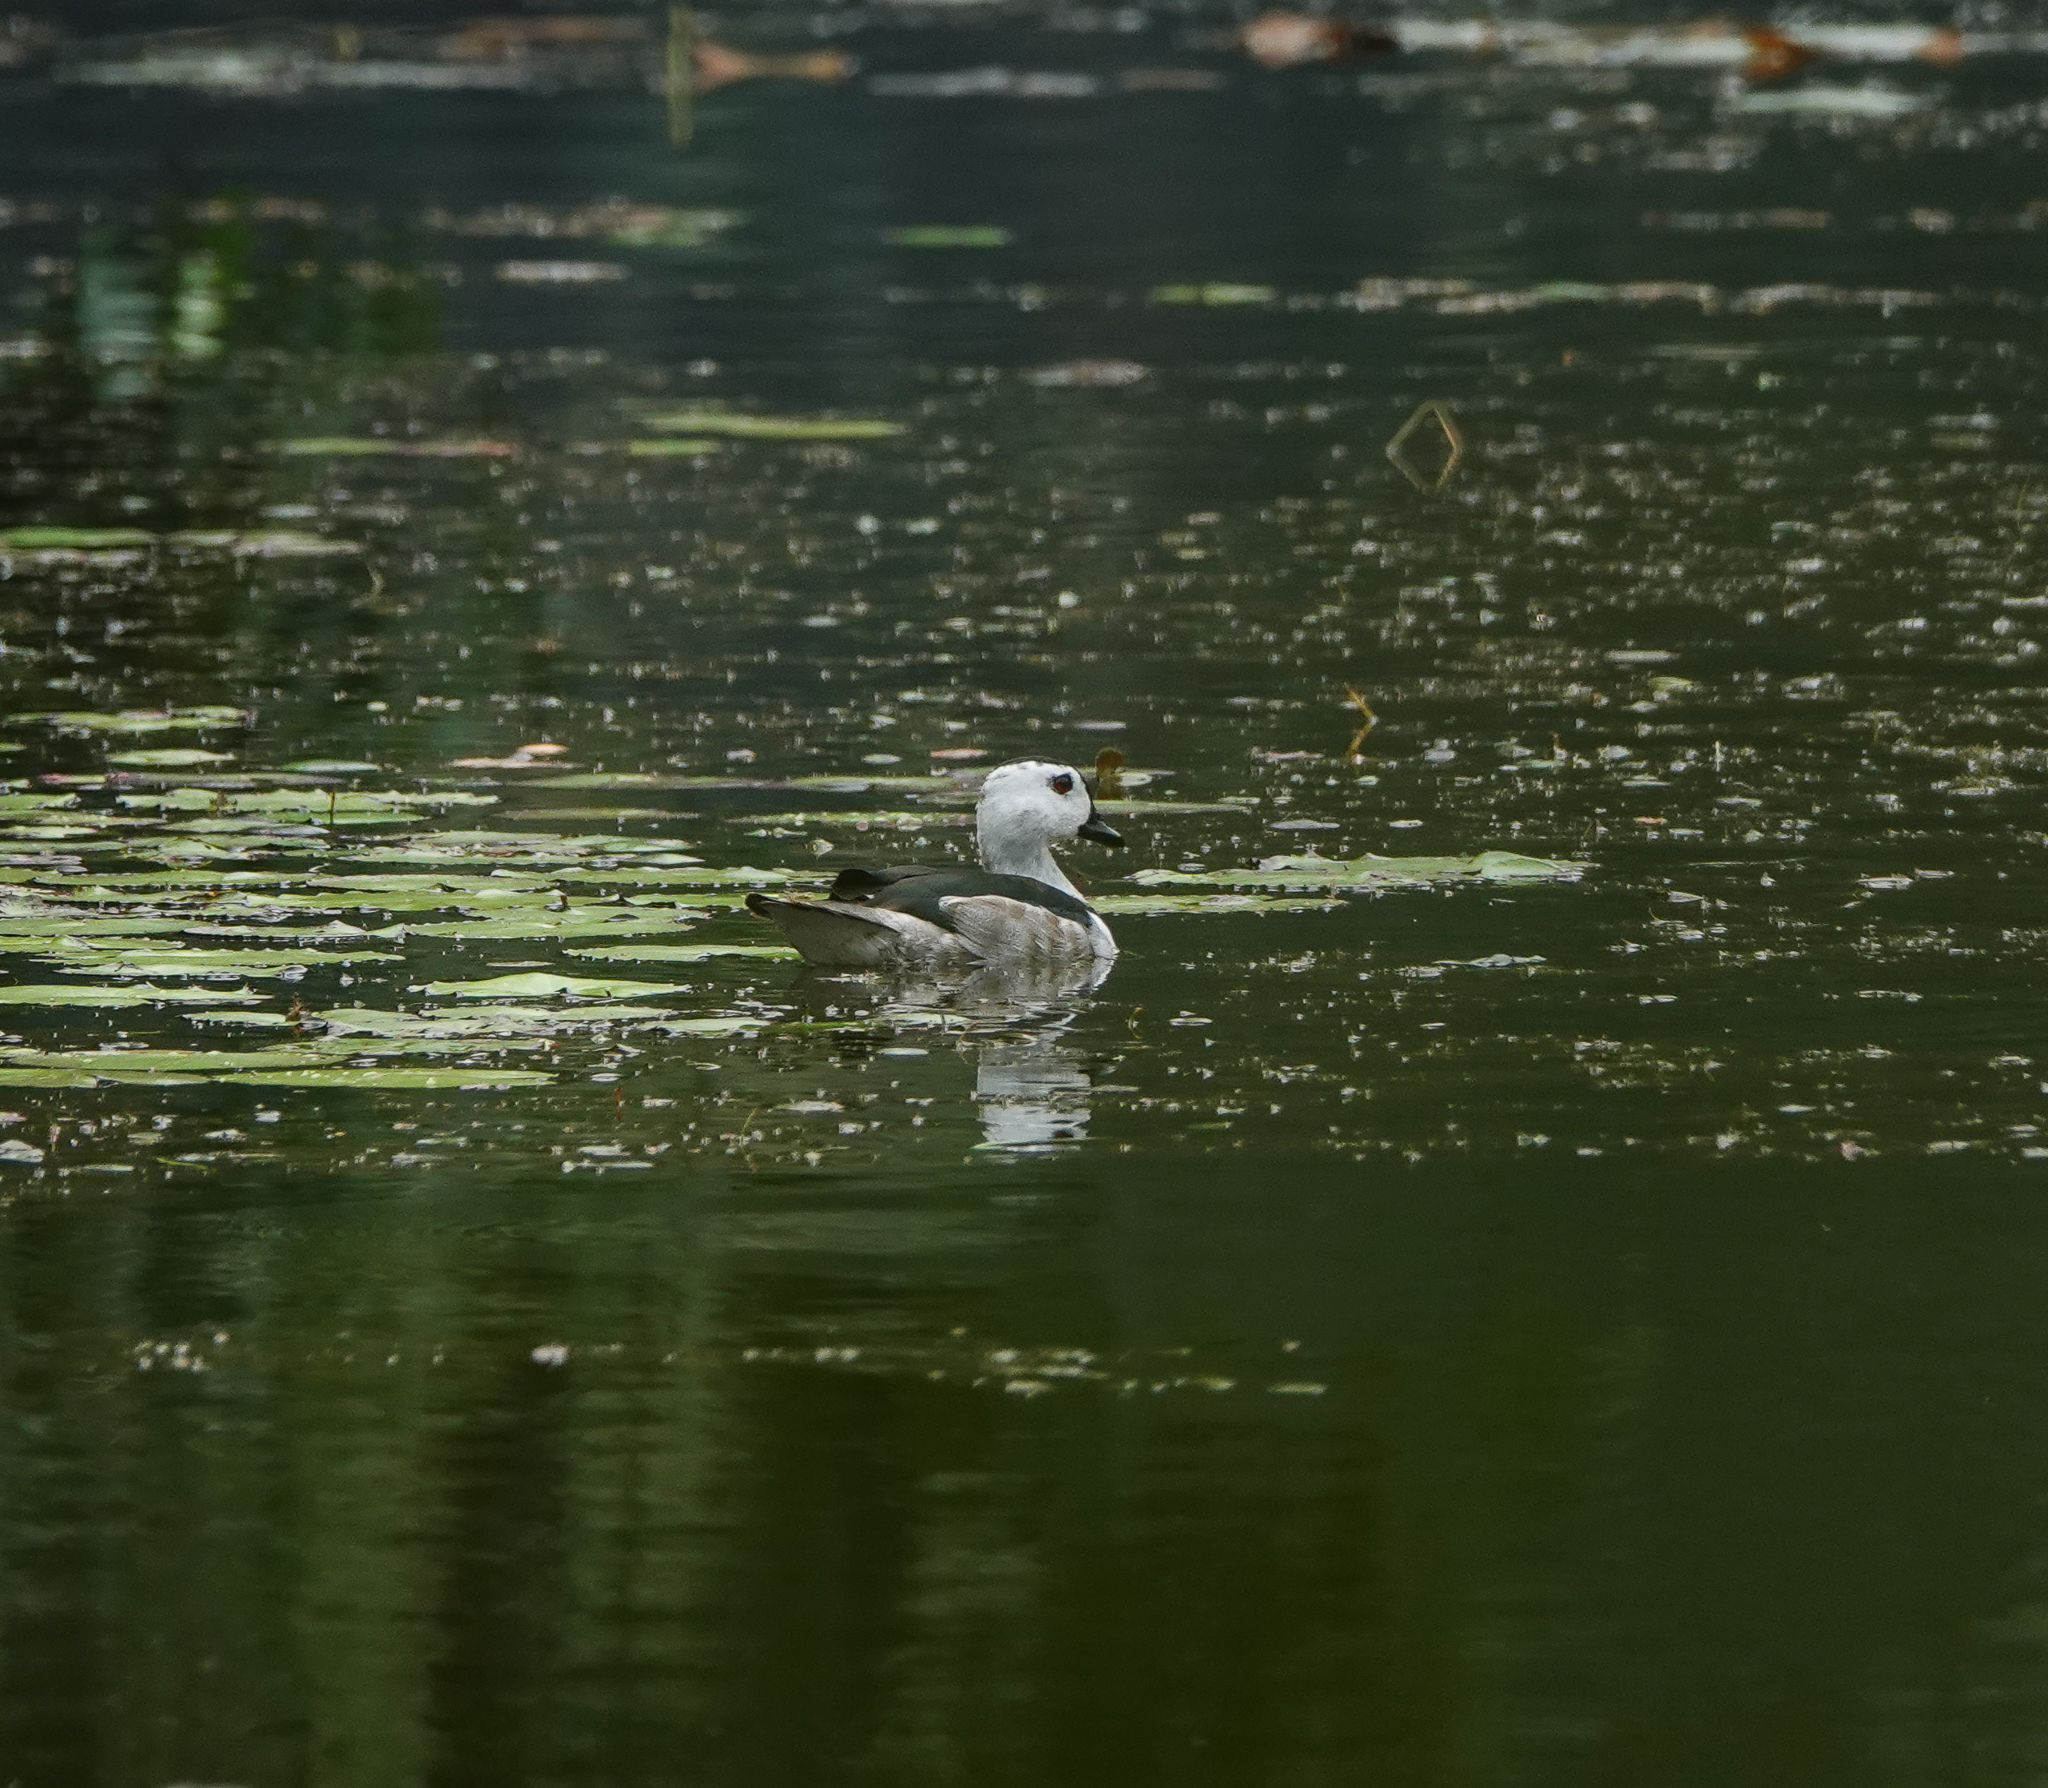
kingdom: Animalia
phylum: Chordata
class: Aves
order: Anseriformes
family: Anatidae
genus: Nettapus
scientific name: Nettapus coromandelianus
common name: Cotton pygmy-goose
